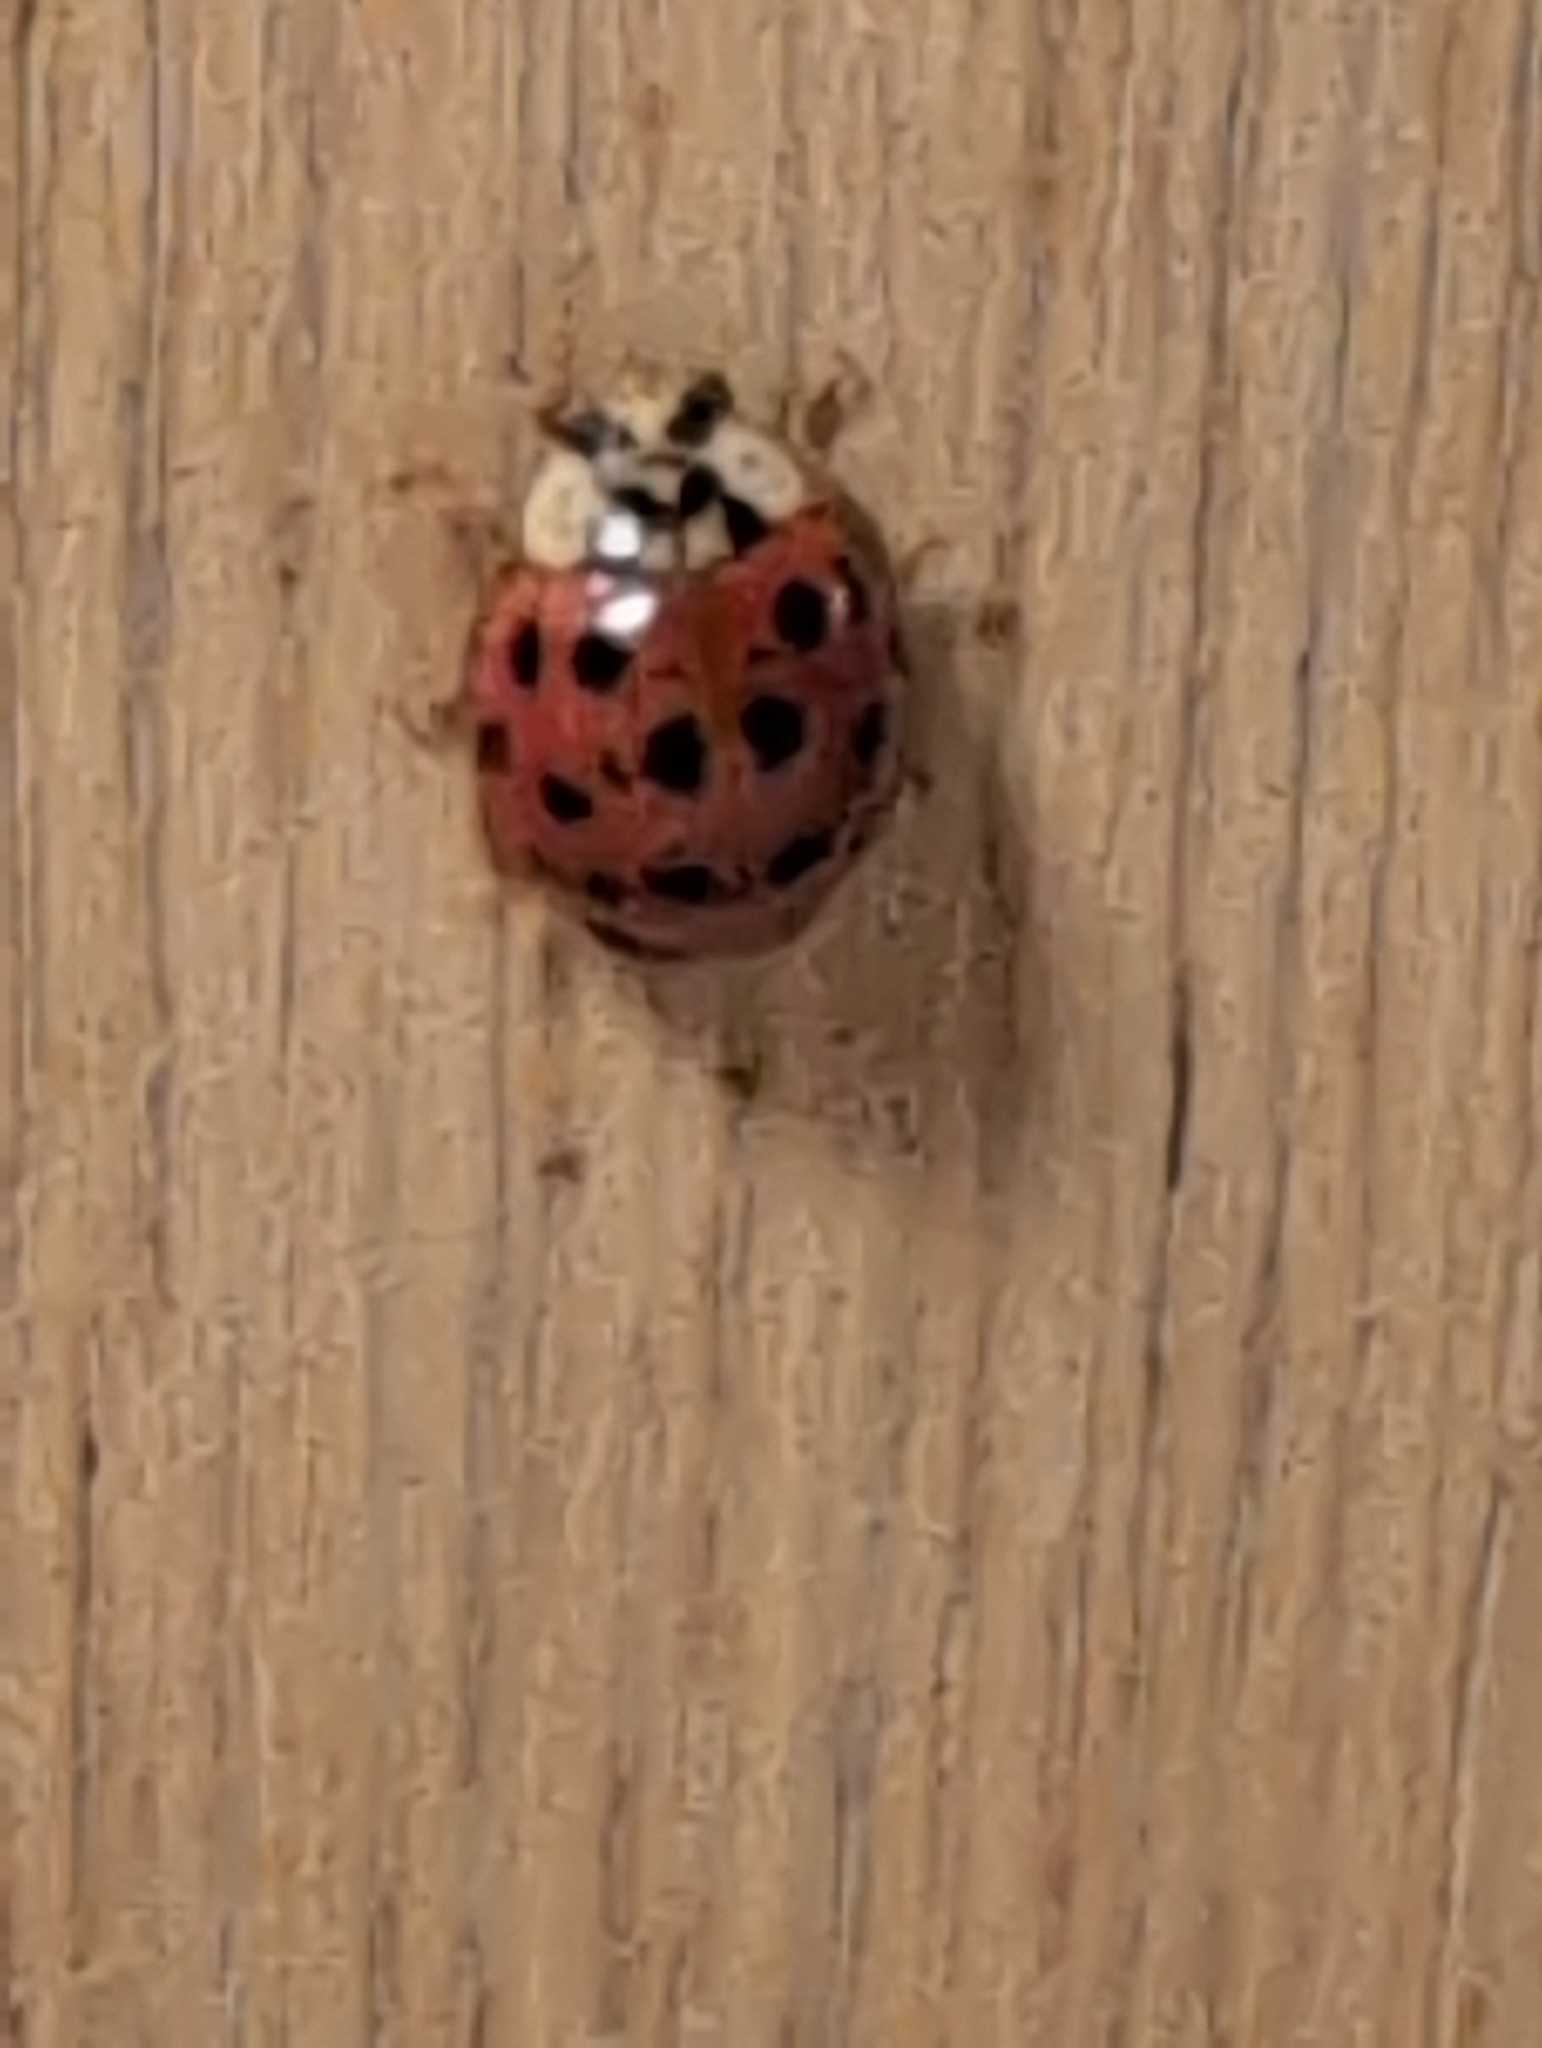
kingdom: Animalia
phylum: Arthropoda
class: Insecta
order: Coleoptera
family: Coccinellidae
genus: Harmonia
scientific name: Harmonia axyridis
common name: Harlequin ladybird
